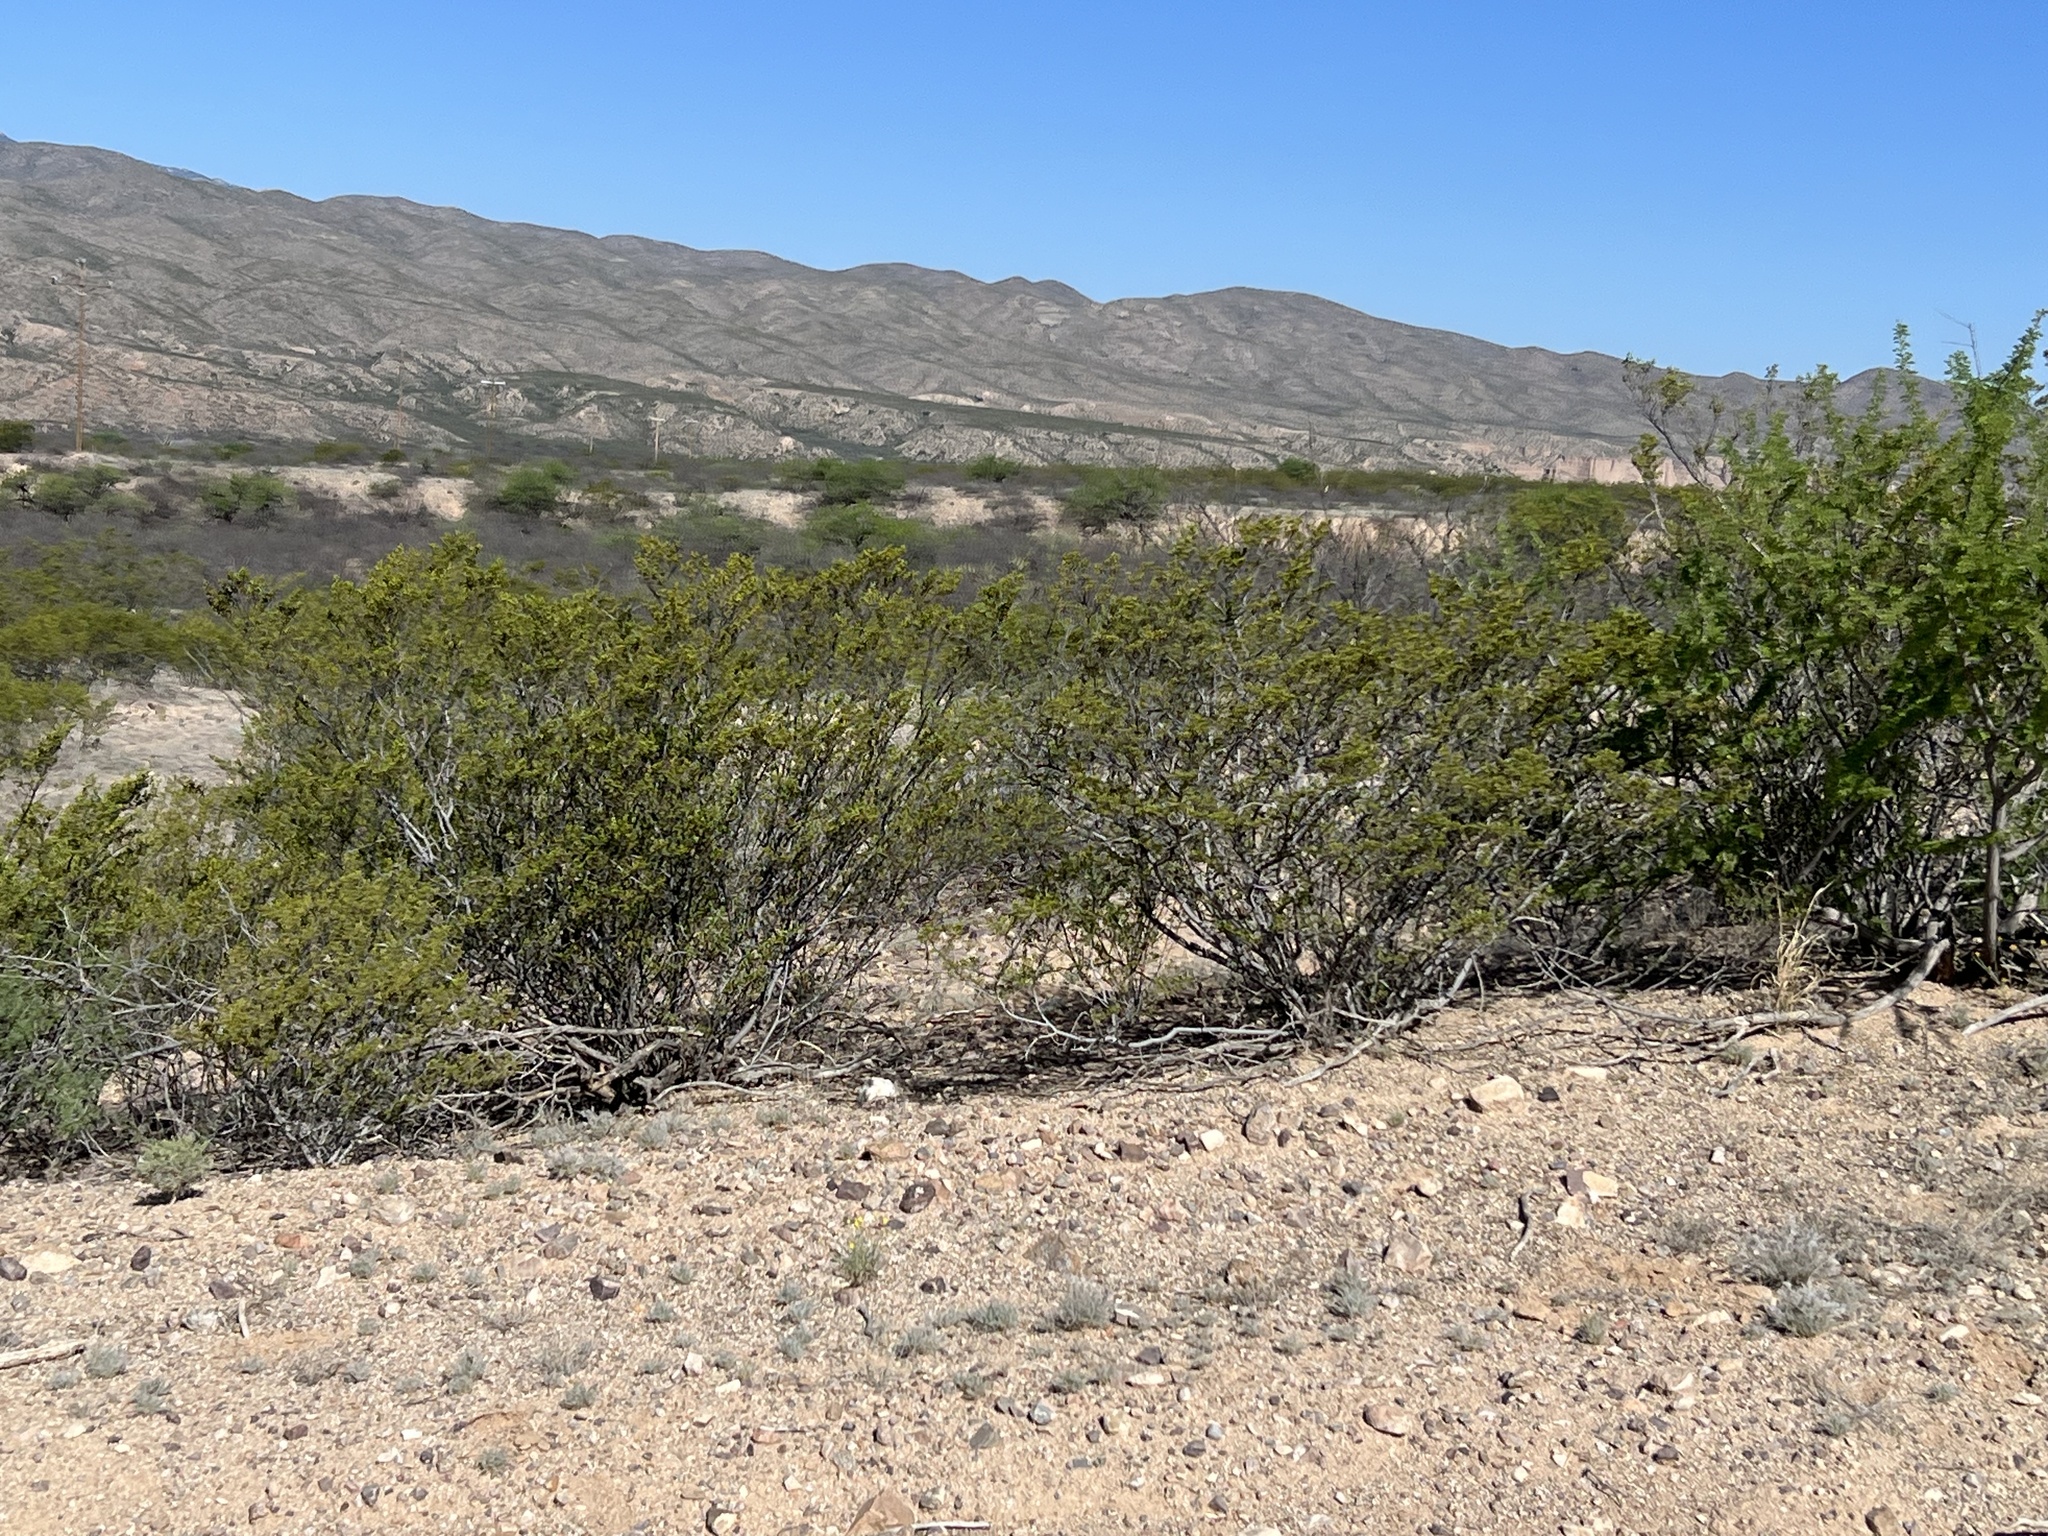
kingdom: Plantae
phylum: Tracheophyta
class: Magnoliopsida
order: Zygophyllales
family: Zygophyllaceae
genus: Larrea
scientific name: Larrea tridentata
